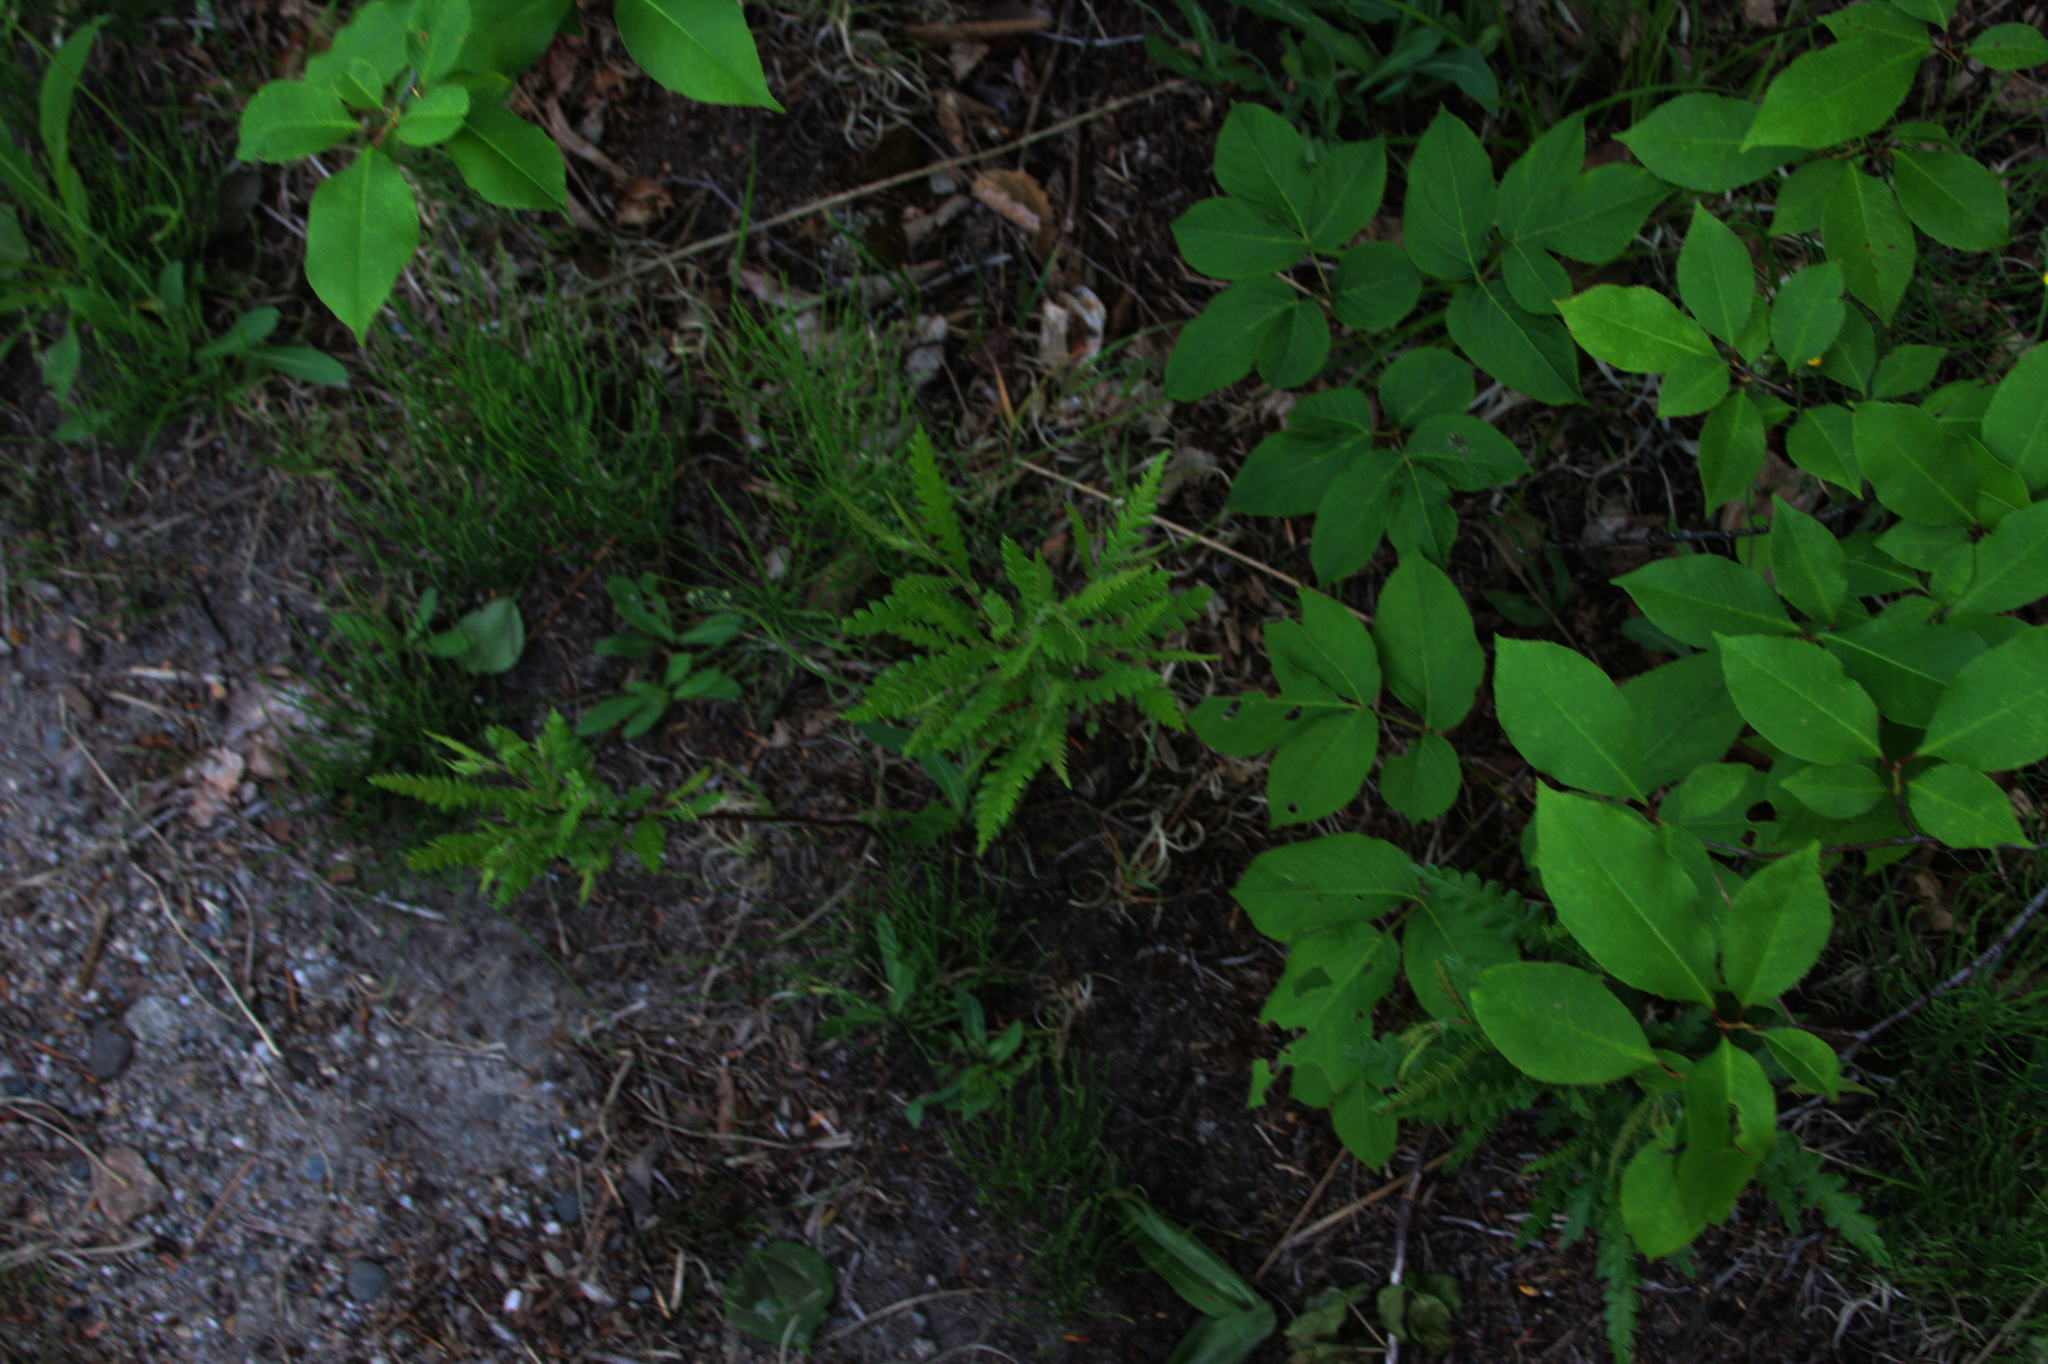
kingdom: Plantae
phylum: Tracheophyta
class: Magnoliopsida
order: Apiales
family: Araliaceae
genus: Aralia
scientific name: Aralia nudicaulis
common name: Wild sarsaparilla
